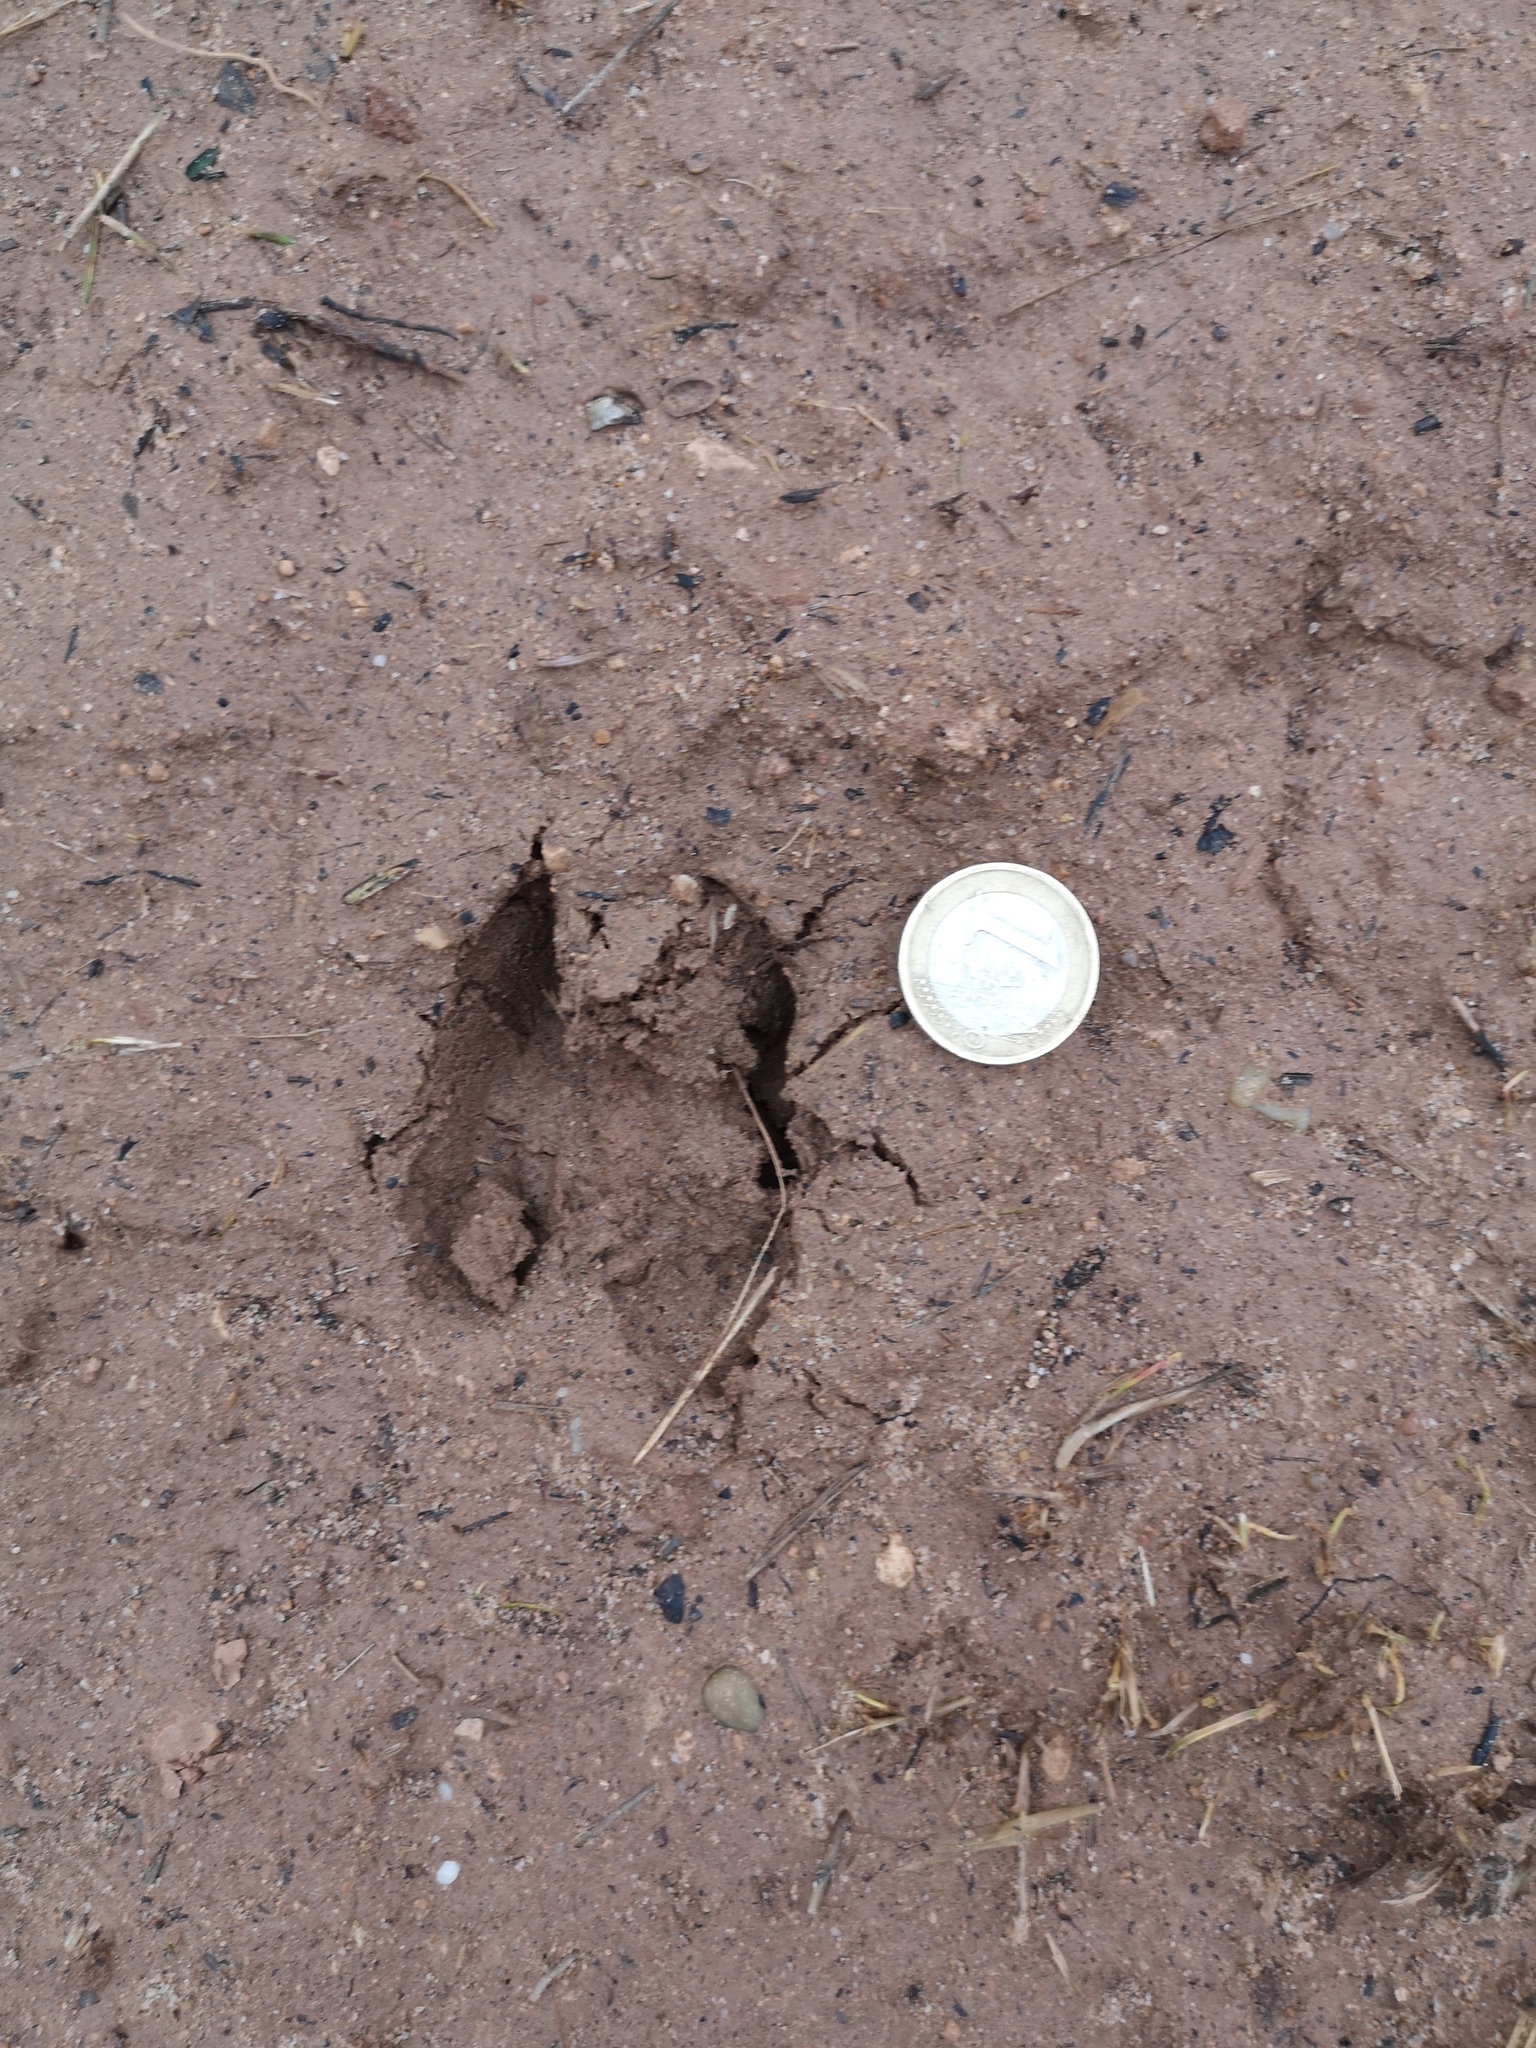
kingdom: Animalia
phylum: Chordata
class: Mammalia
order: Artiodactyla
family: Cervidae
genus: Capreolus
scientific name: Capreolus capreolus
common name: Western roe deer
